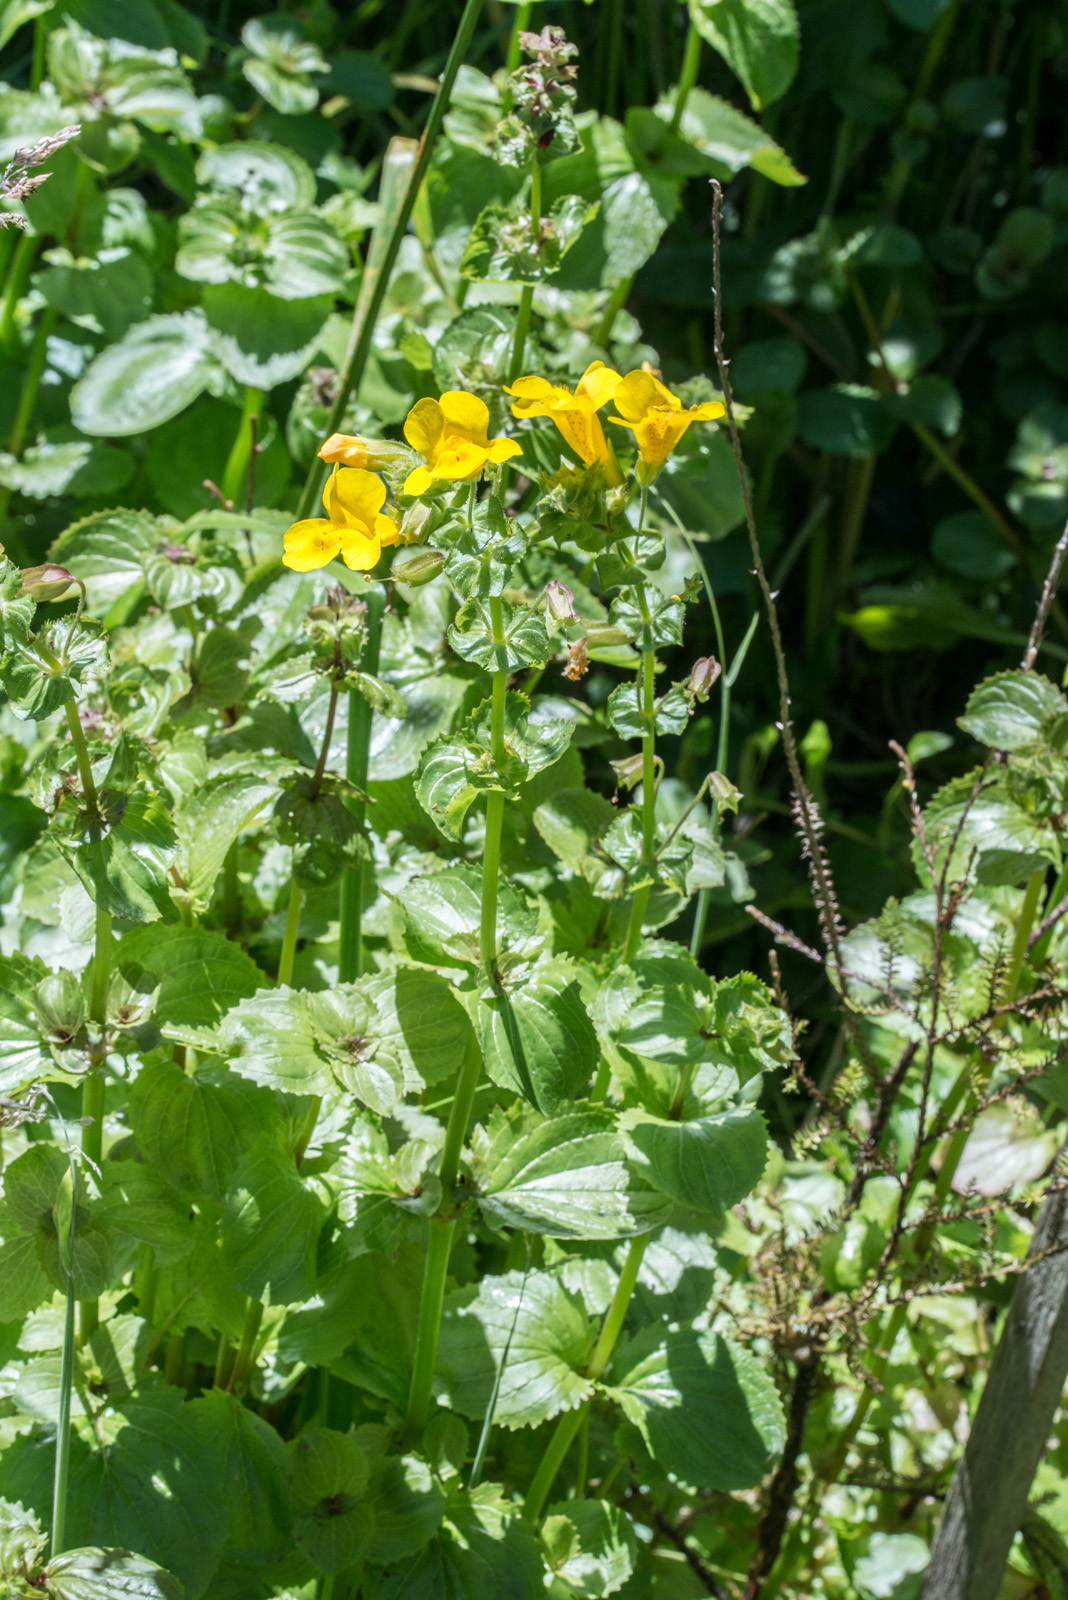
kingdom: Plantae
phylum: Tracheophyta
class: Magnoliopsida
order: Lamiales
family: Phrymaceae
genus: Erythranthe
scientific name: Erythranthe guttata
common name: Monkeyflower
